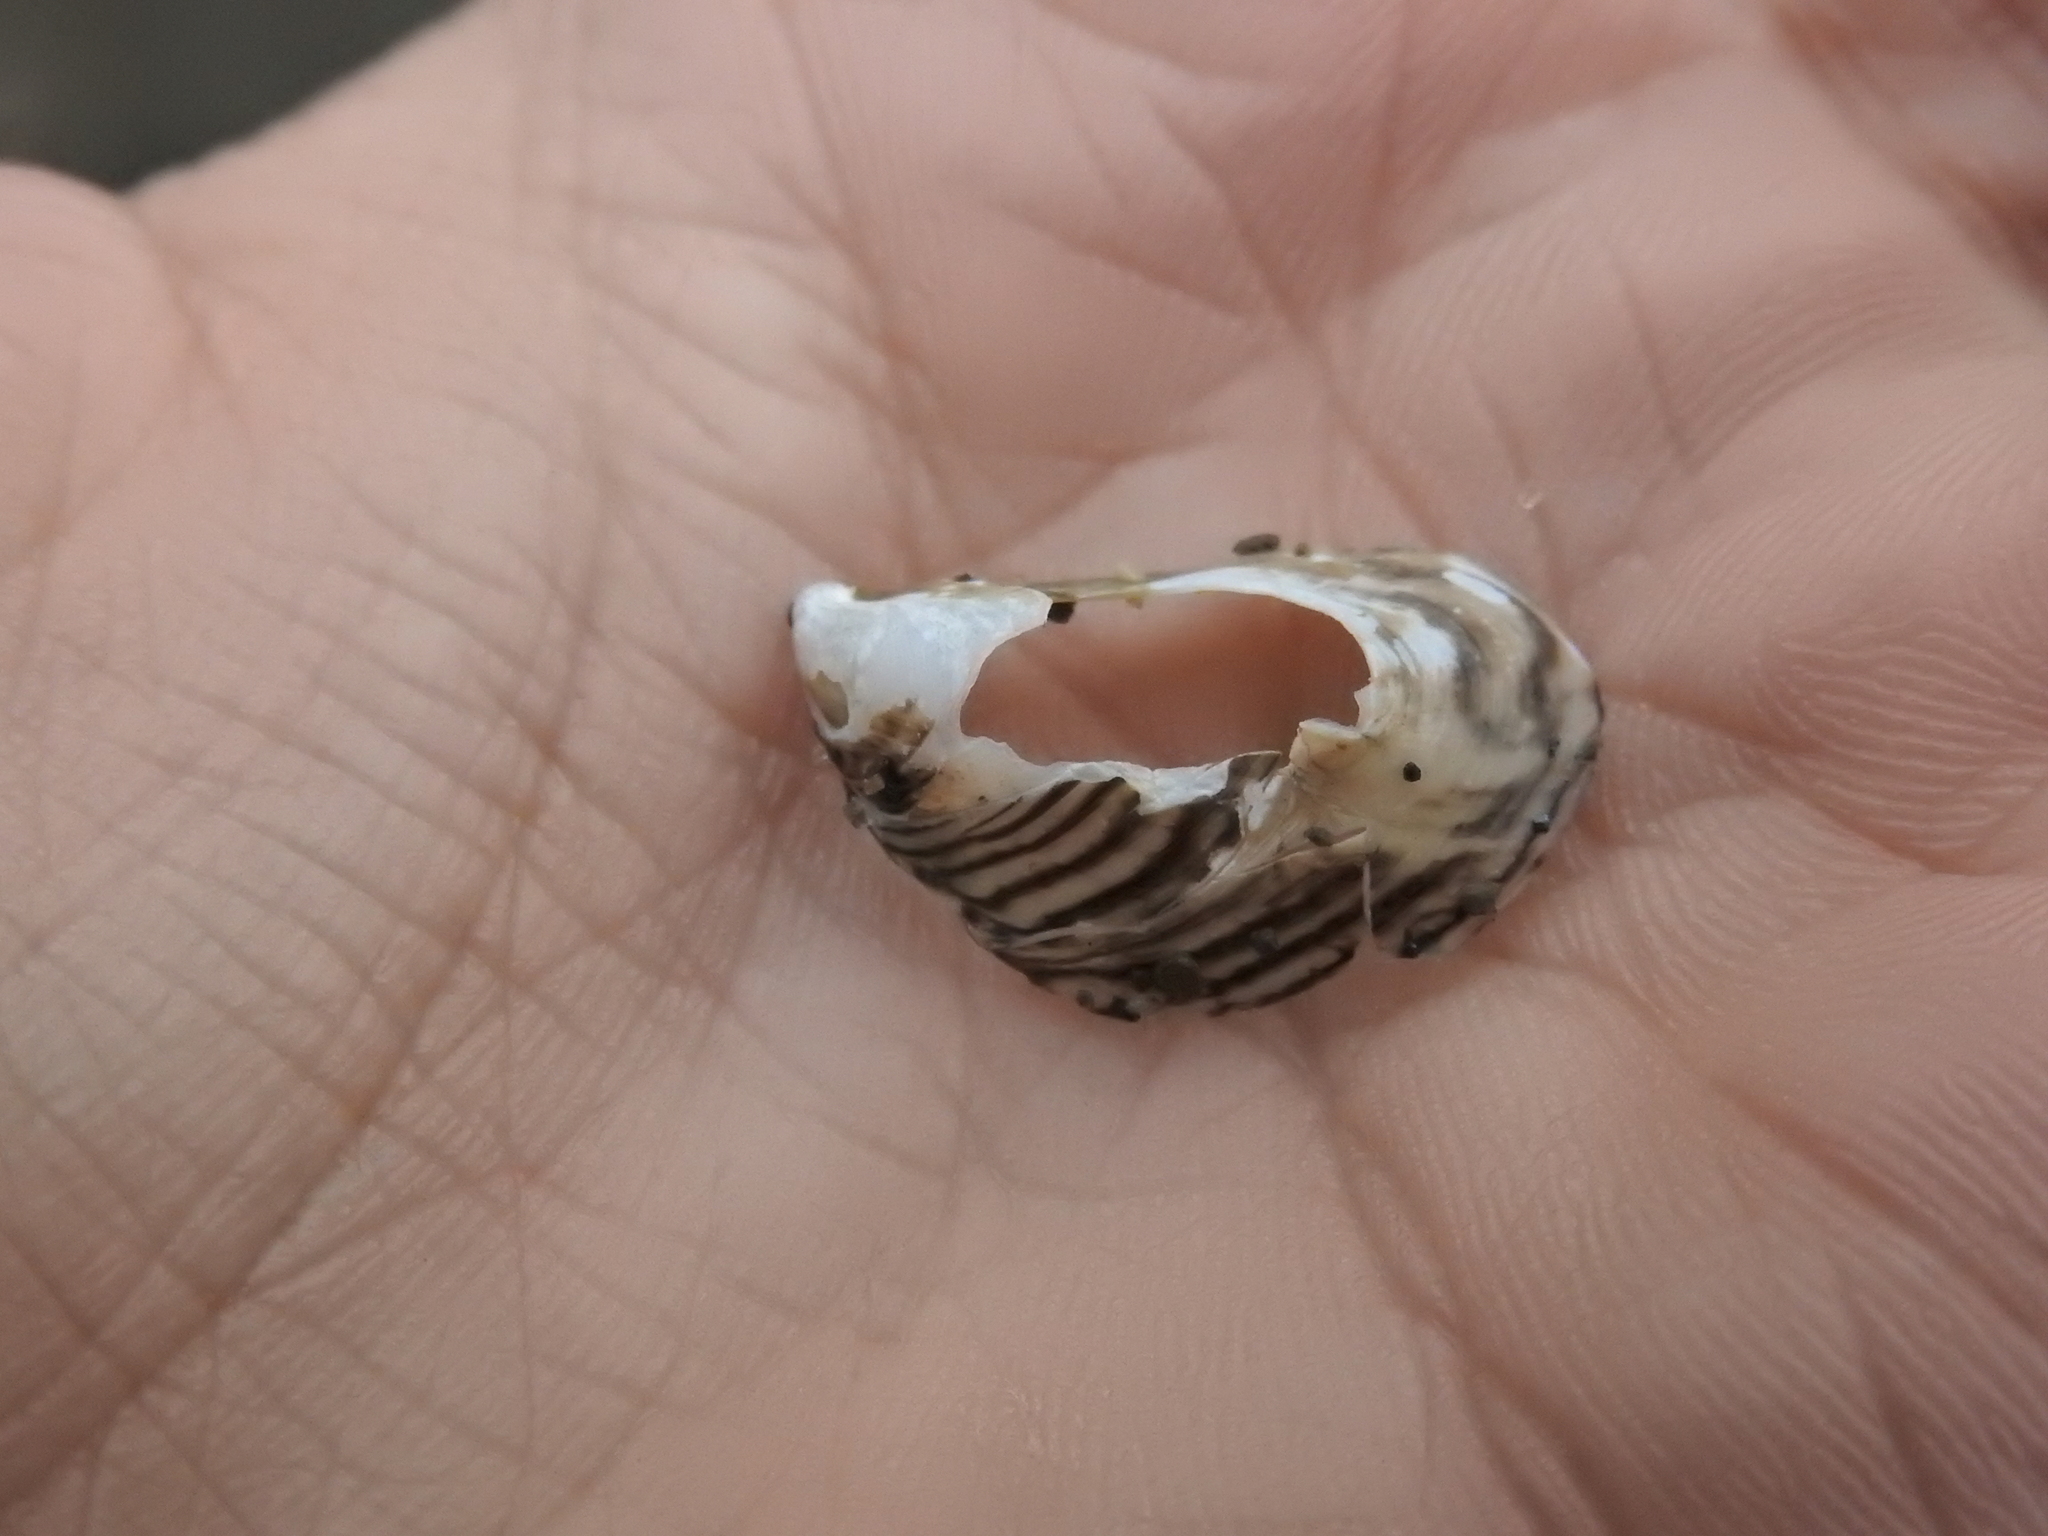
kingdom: Animalia
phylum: Mollusca
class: Bivalvia
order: Myida
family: Dreissenidae
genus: Dreissena
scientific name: Dreissena polymorpha
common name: Zebra mussel
